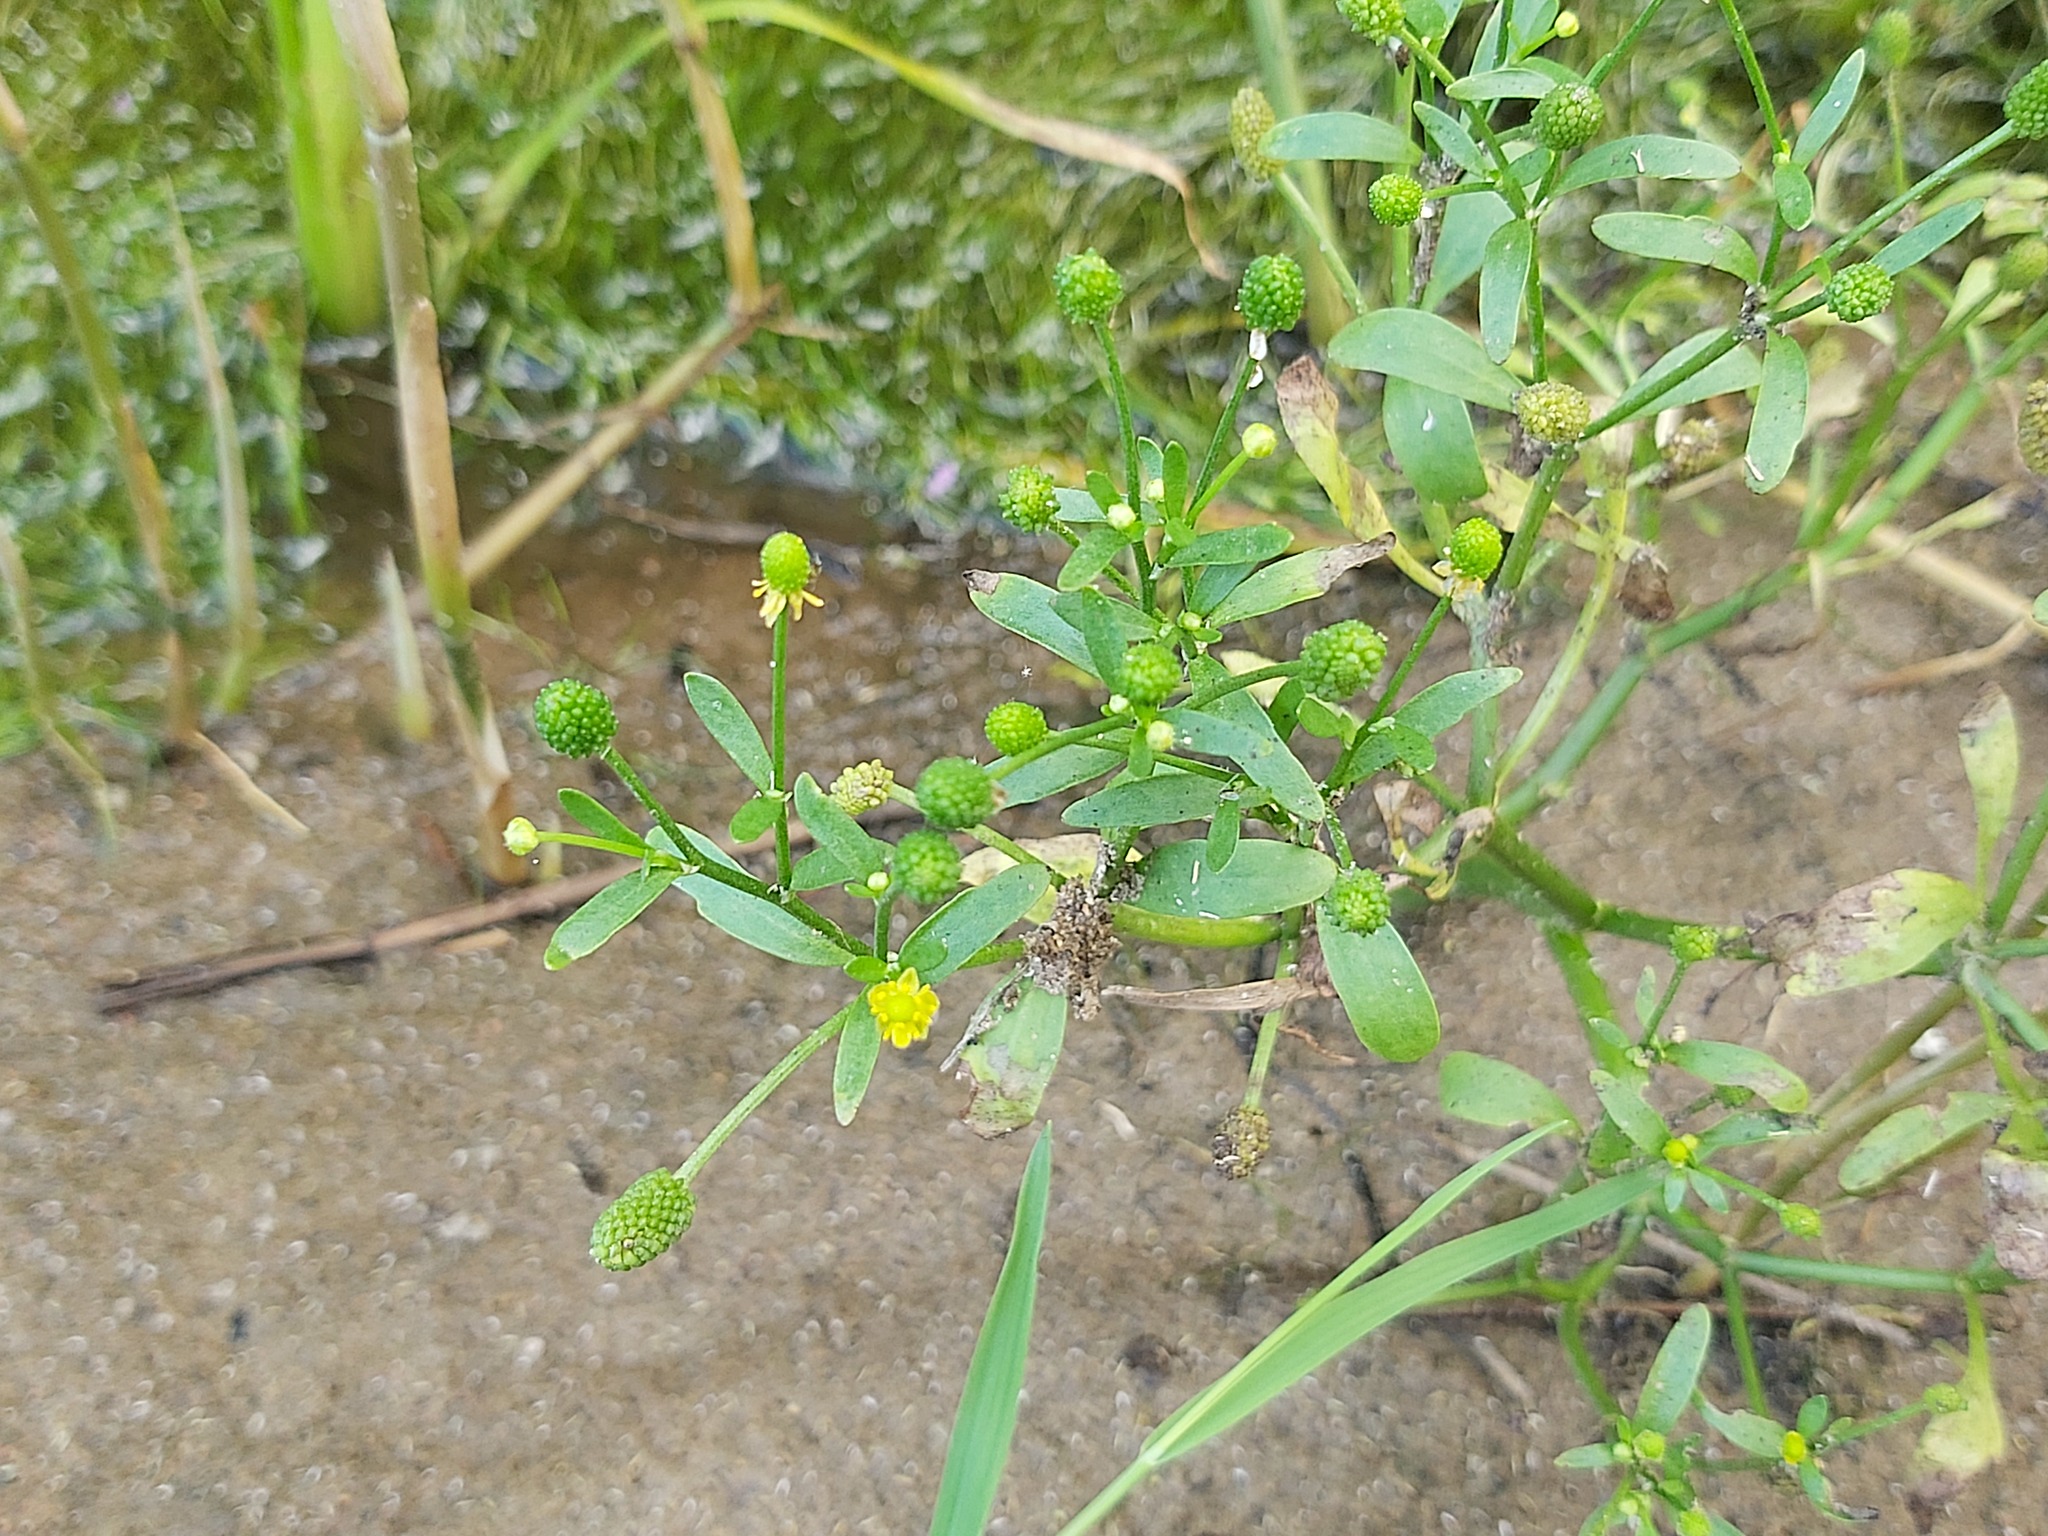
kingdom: Plantae
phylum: Tracheophyta
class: Magnoliopsida
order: Ranunculales
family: Ranunculaceae
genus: Ranunculus
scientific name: Ranunculus sceleratus
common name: Celery-leaved buttercup
